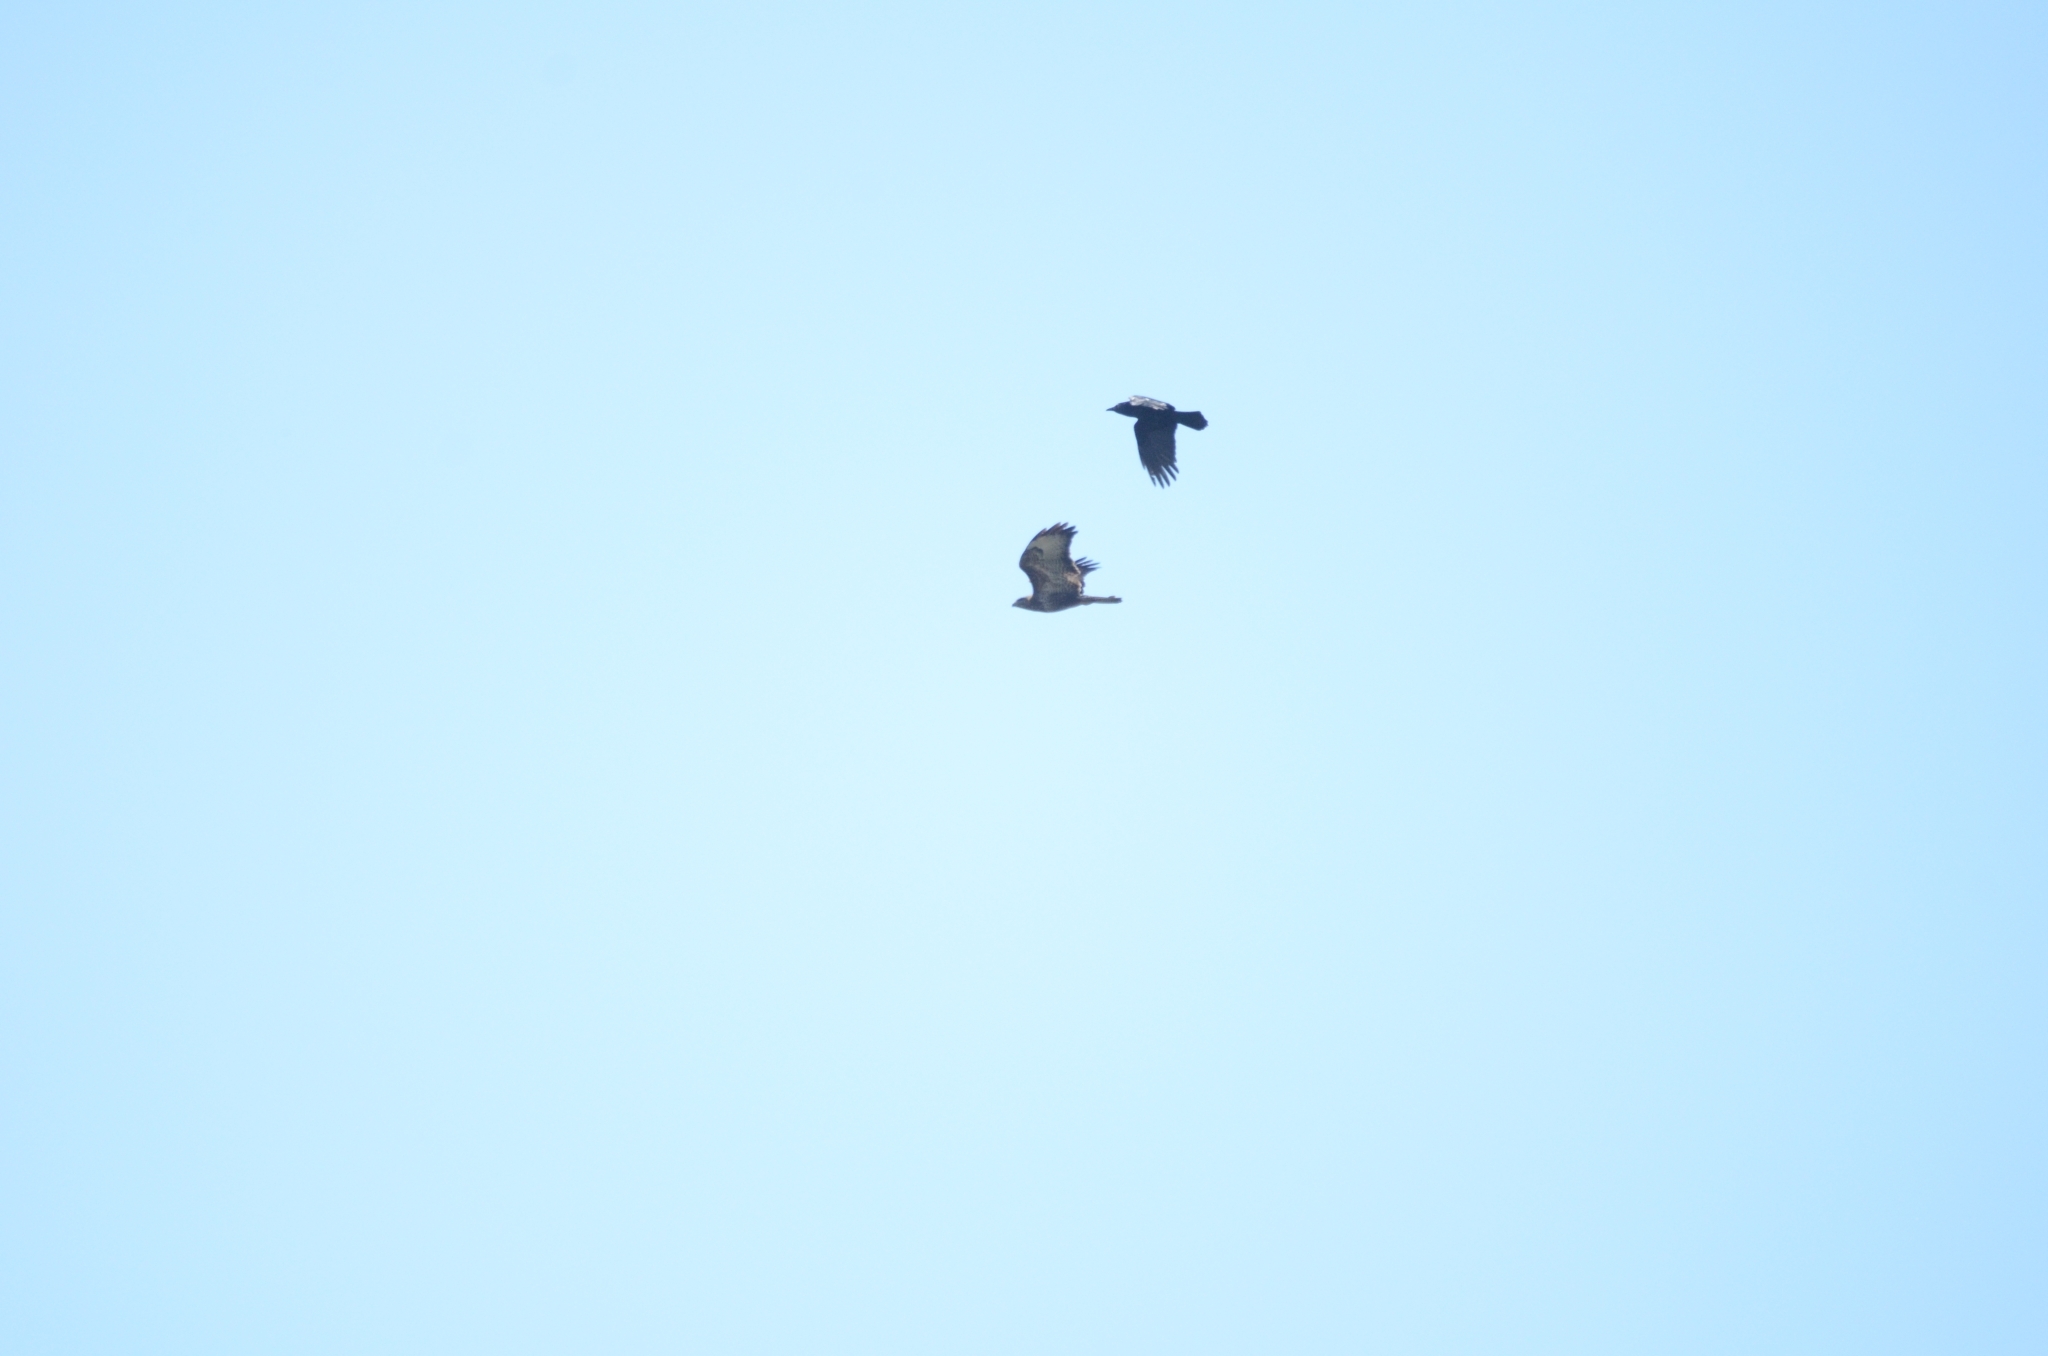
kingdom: Animalia
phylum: Chordata
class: Aves
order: Passeriformes
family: Corvidae
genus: Corvus
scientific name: Corvus corone
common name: Carrion crow
